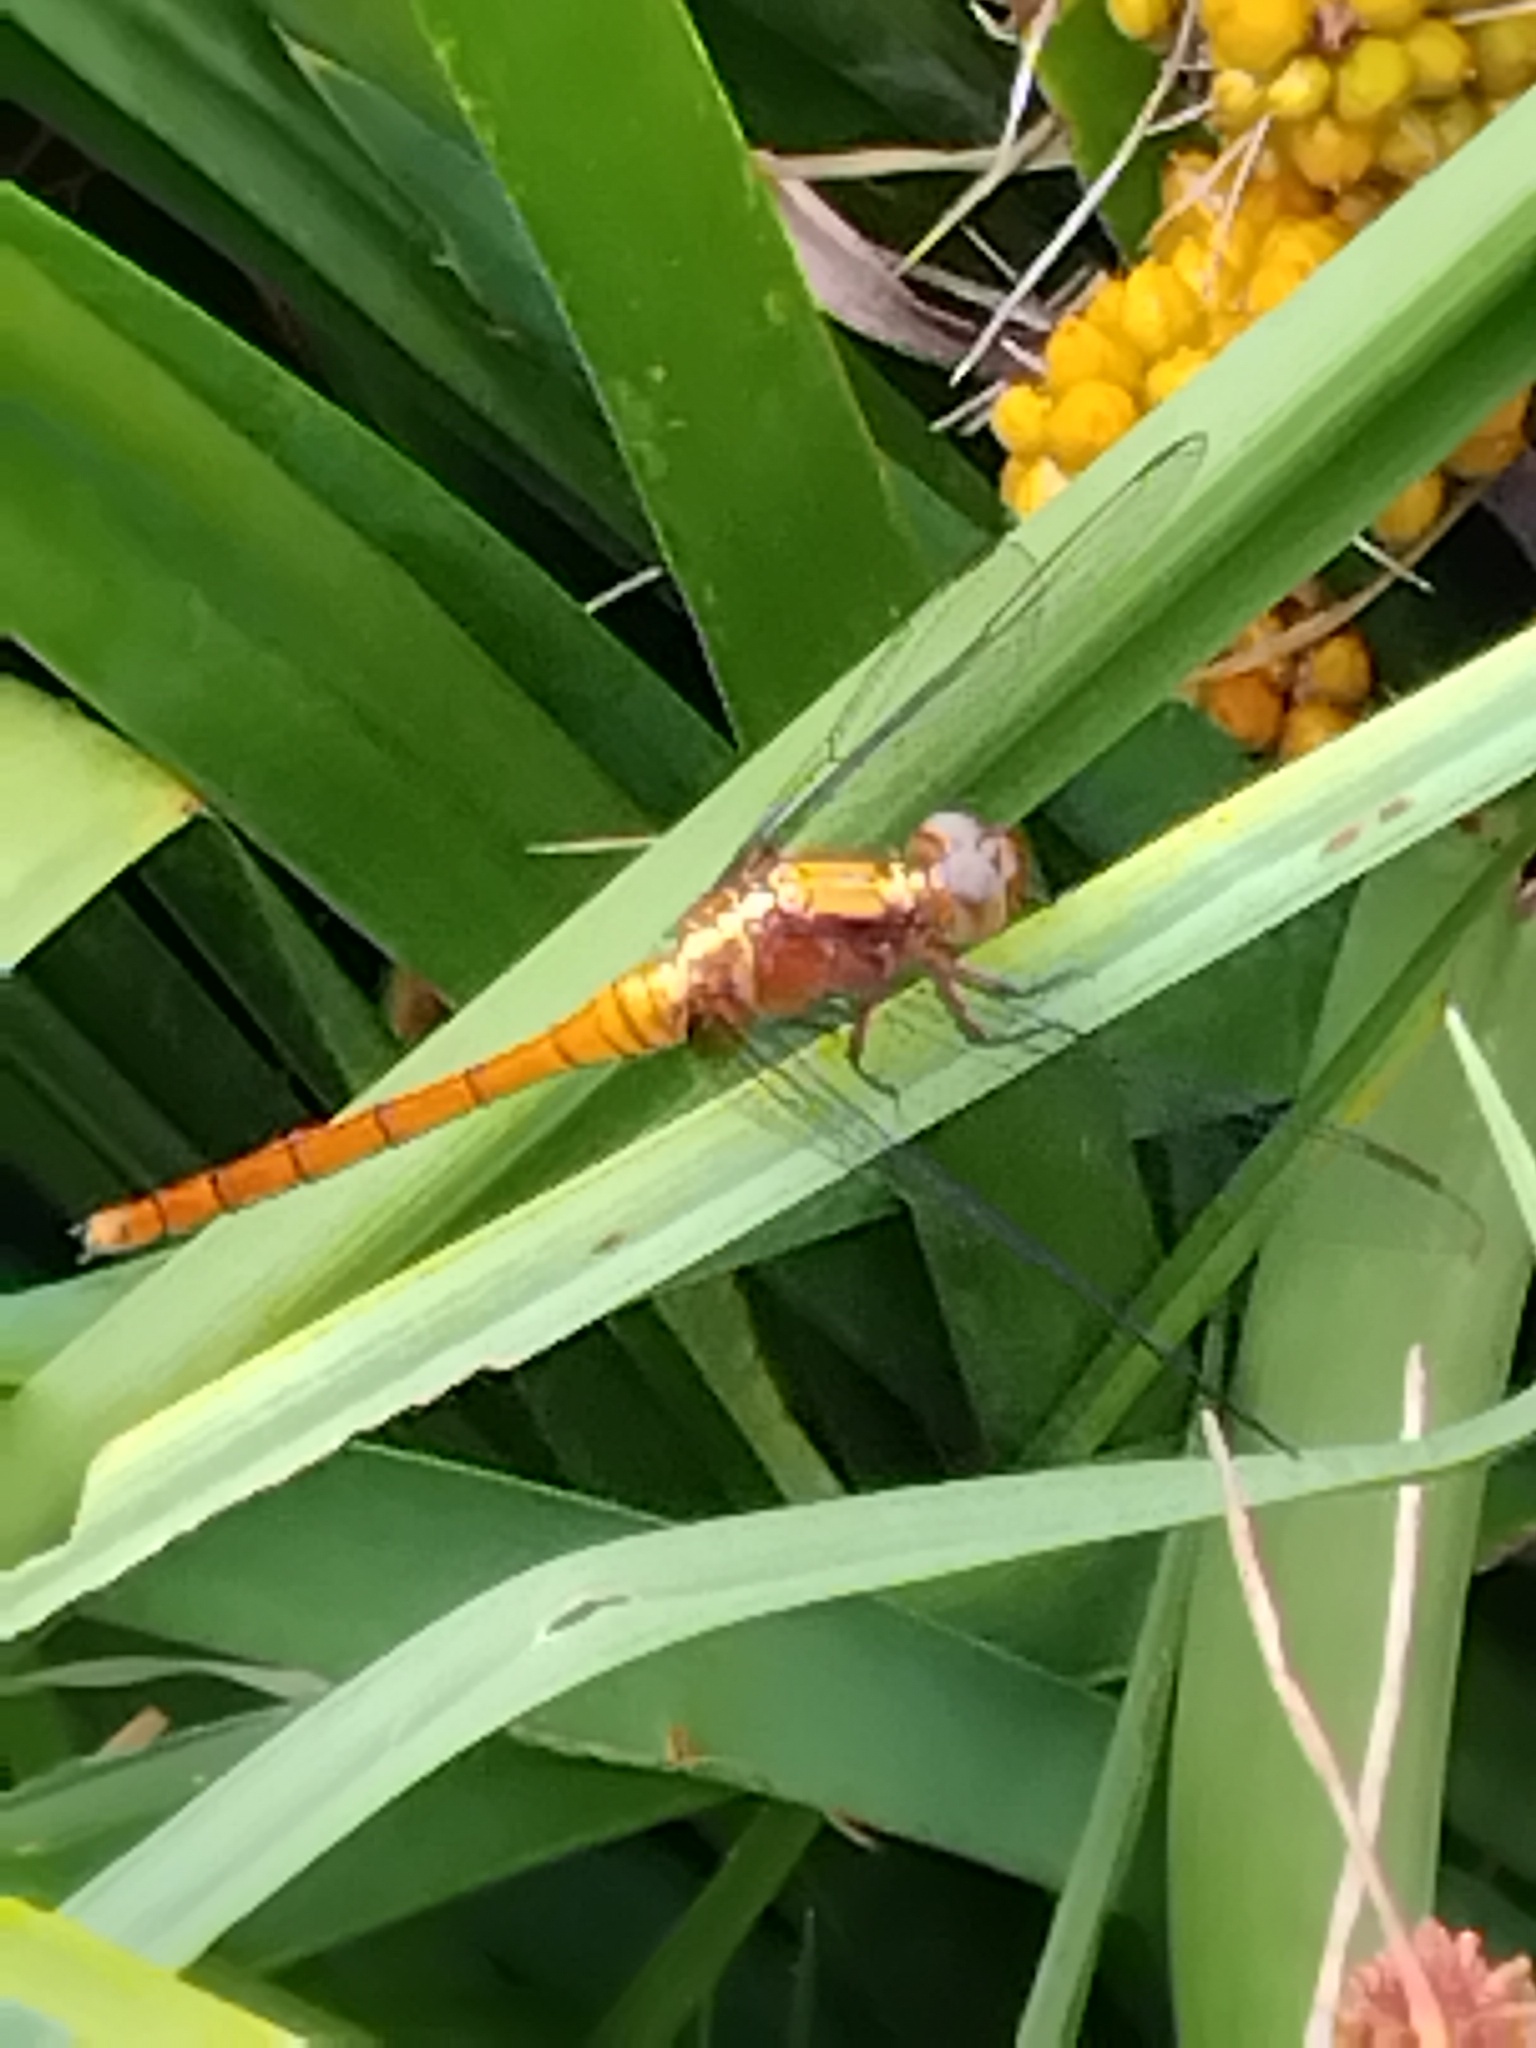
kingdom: Animalia
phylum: Arthropoda
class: Insecta
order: Odonata
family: Libellulidae
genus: Orthetrum
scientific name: Orthetrum villosovittatum
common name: Firery skimmer
